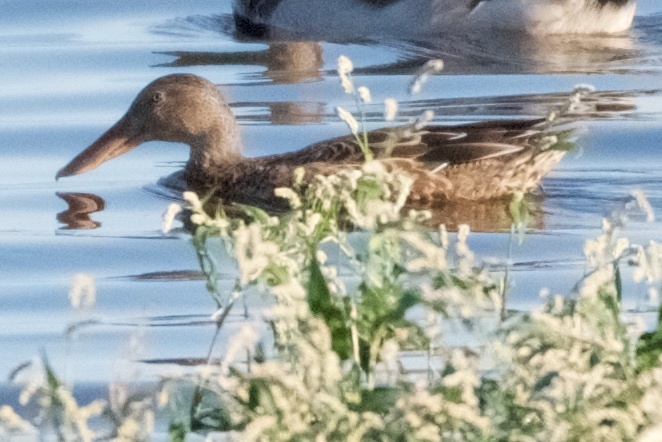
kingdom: Animalia
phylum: Chordata
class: Aves
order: Anseriformes
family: Anatidae
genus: Spatula
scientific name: Spatula clypeata
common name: Northern shoveler
